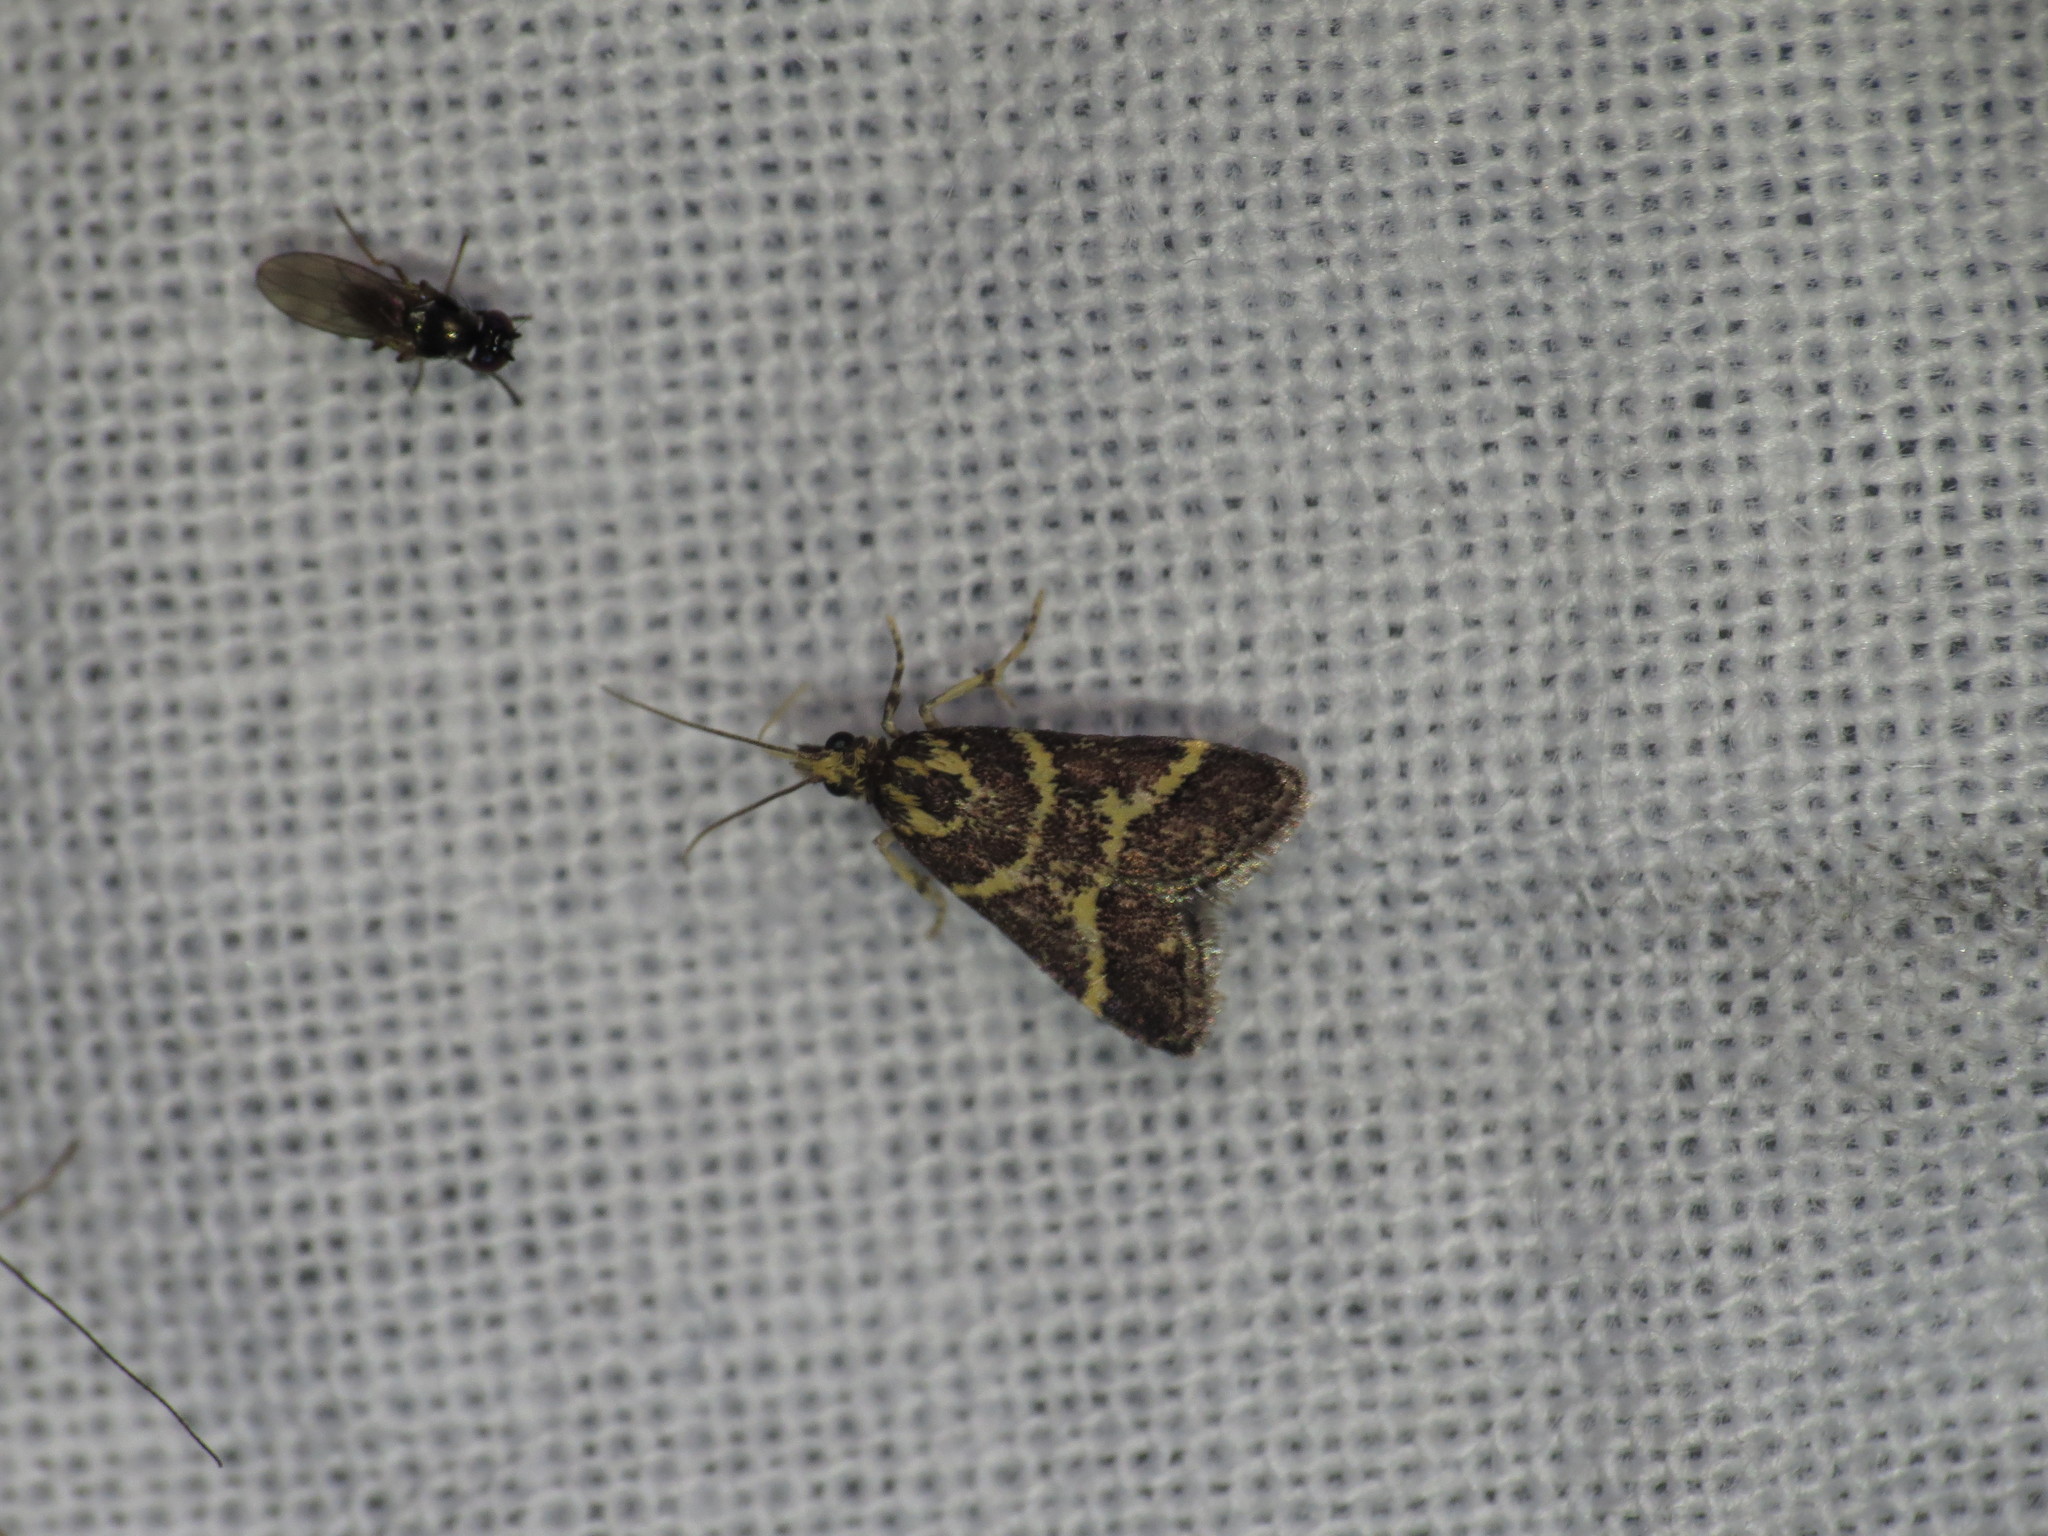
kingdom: Animalia
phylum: Arthropoda
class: Insecta
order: Lepidoptera
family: Crambidae
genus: Scoparia
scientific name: Scoparia spelaea
